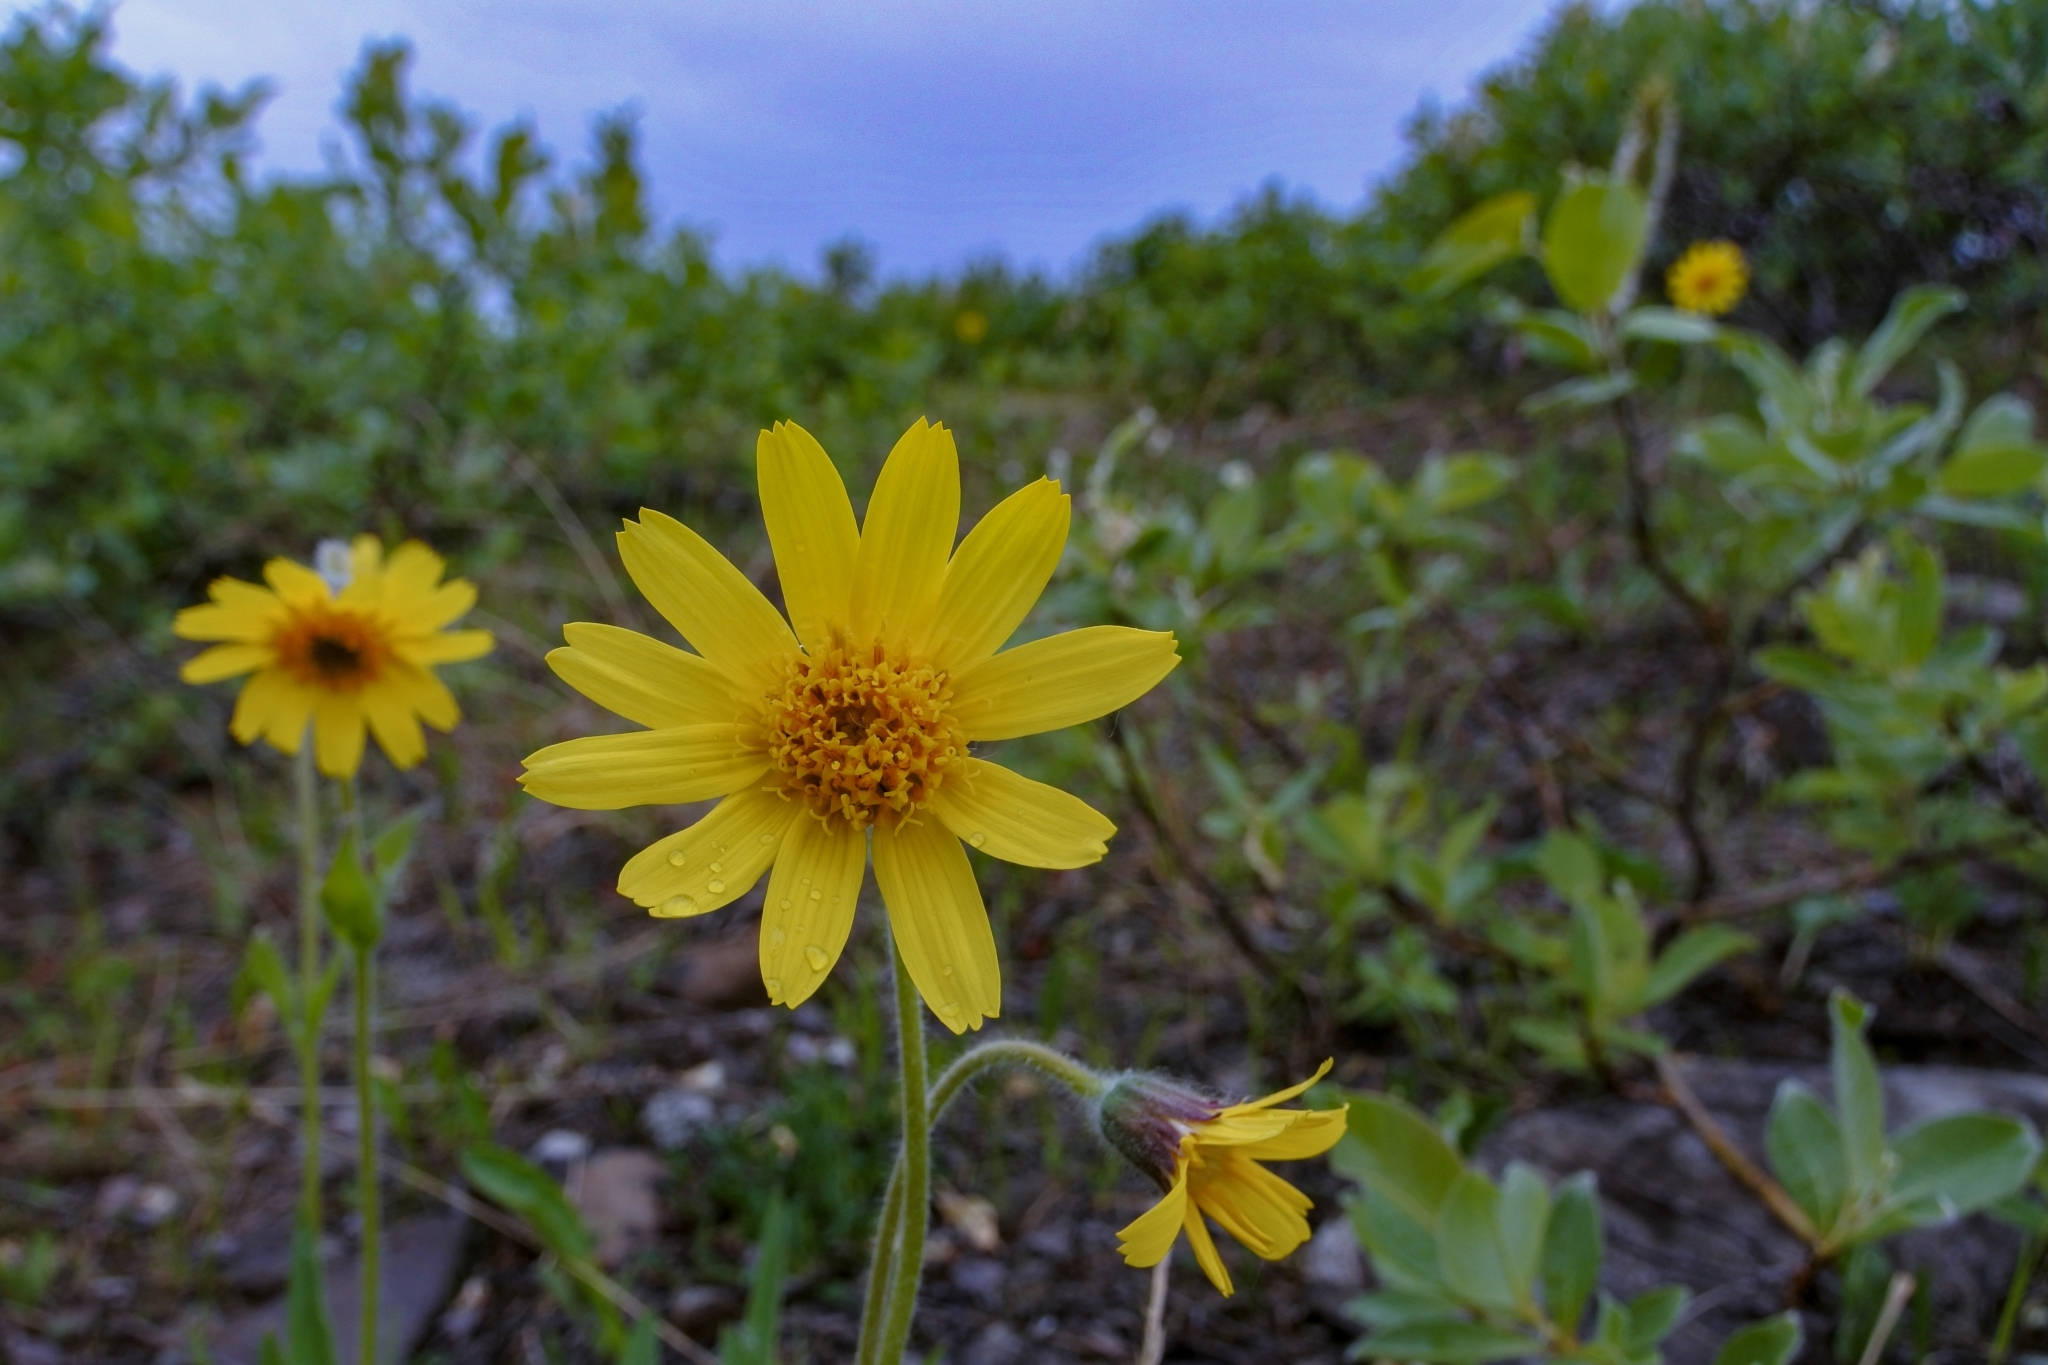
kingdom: Plantae
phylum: Tracheophyta
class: Magnoliopsida
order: Asterales
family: Asteraceae
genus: Arnica
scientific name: Arnica angustifolia
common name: Arctic arnica
